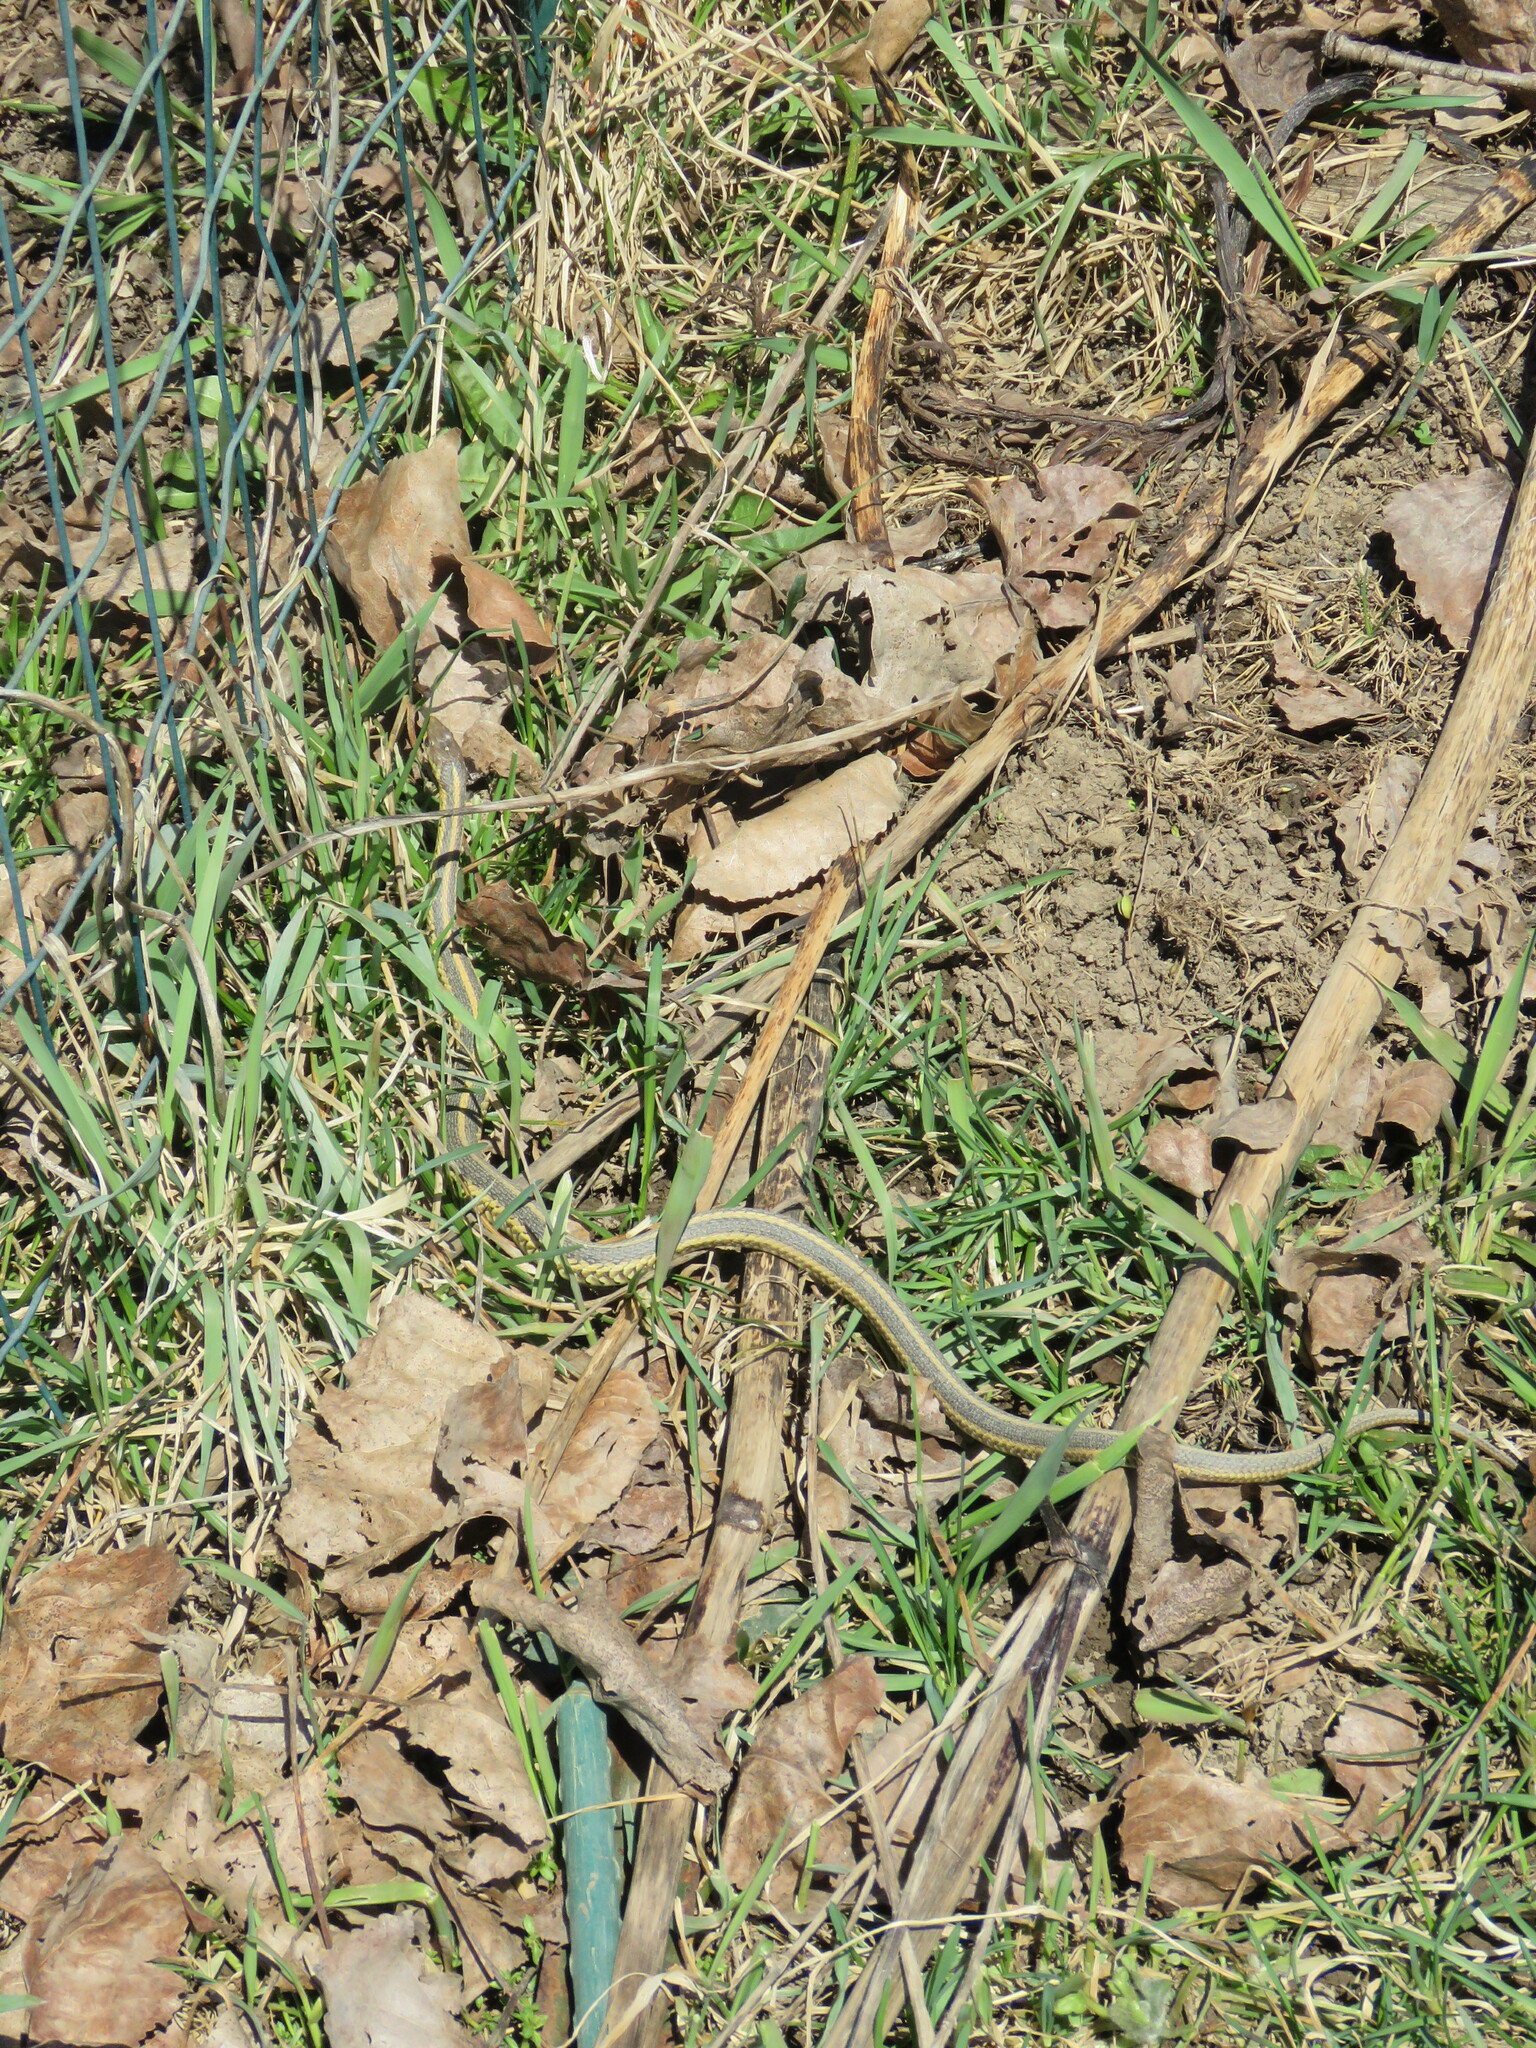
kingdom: Animalia
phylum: Chordata
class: Squamata
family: Colubridae
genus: Thamnophis
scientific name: Thamnophis sirtalis
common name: Common garter snake
